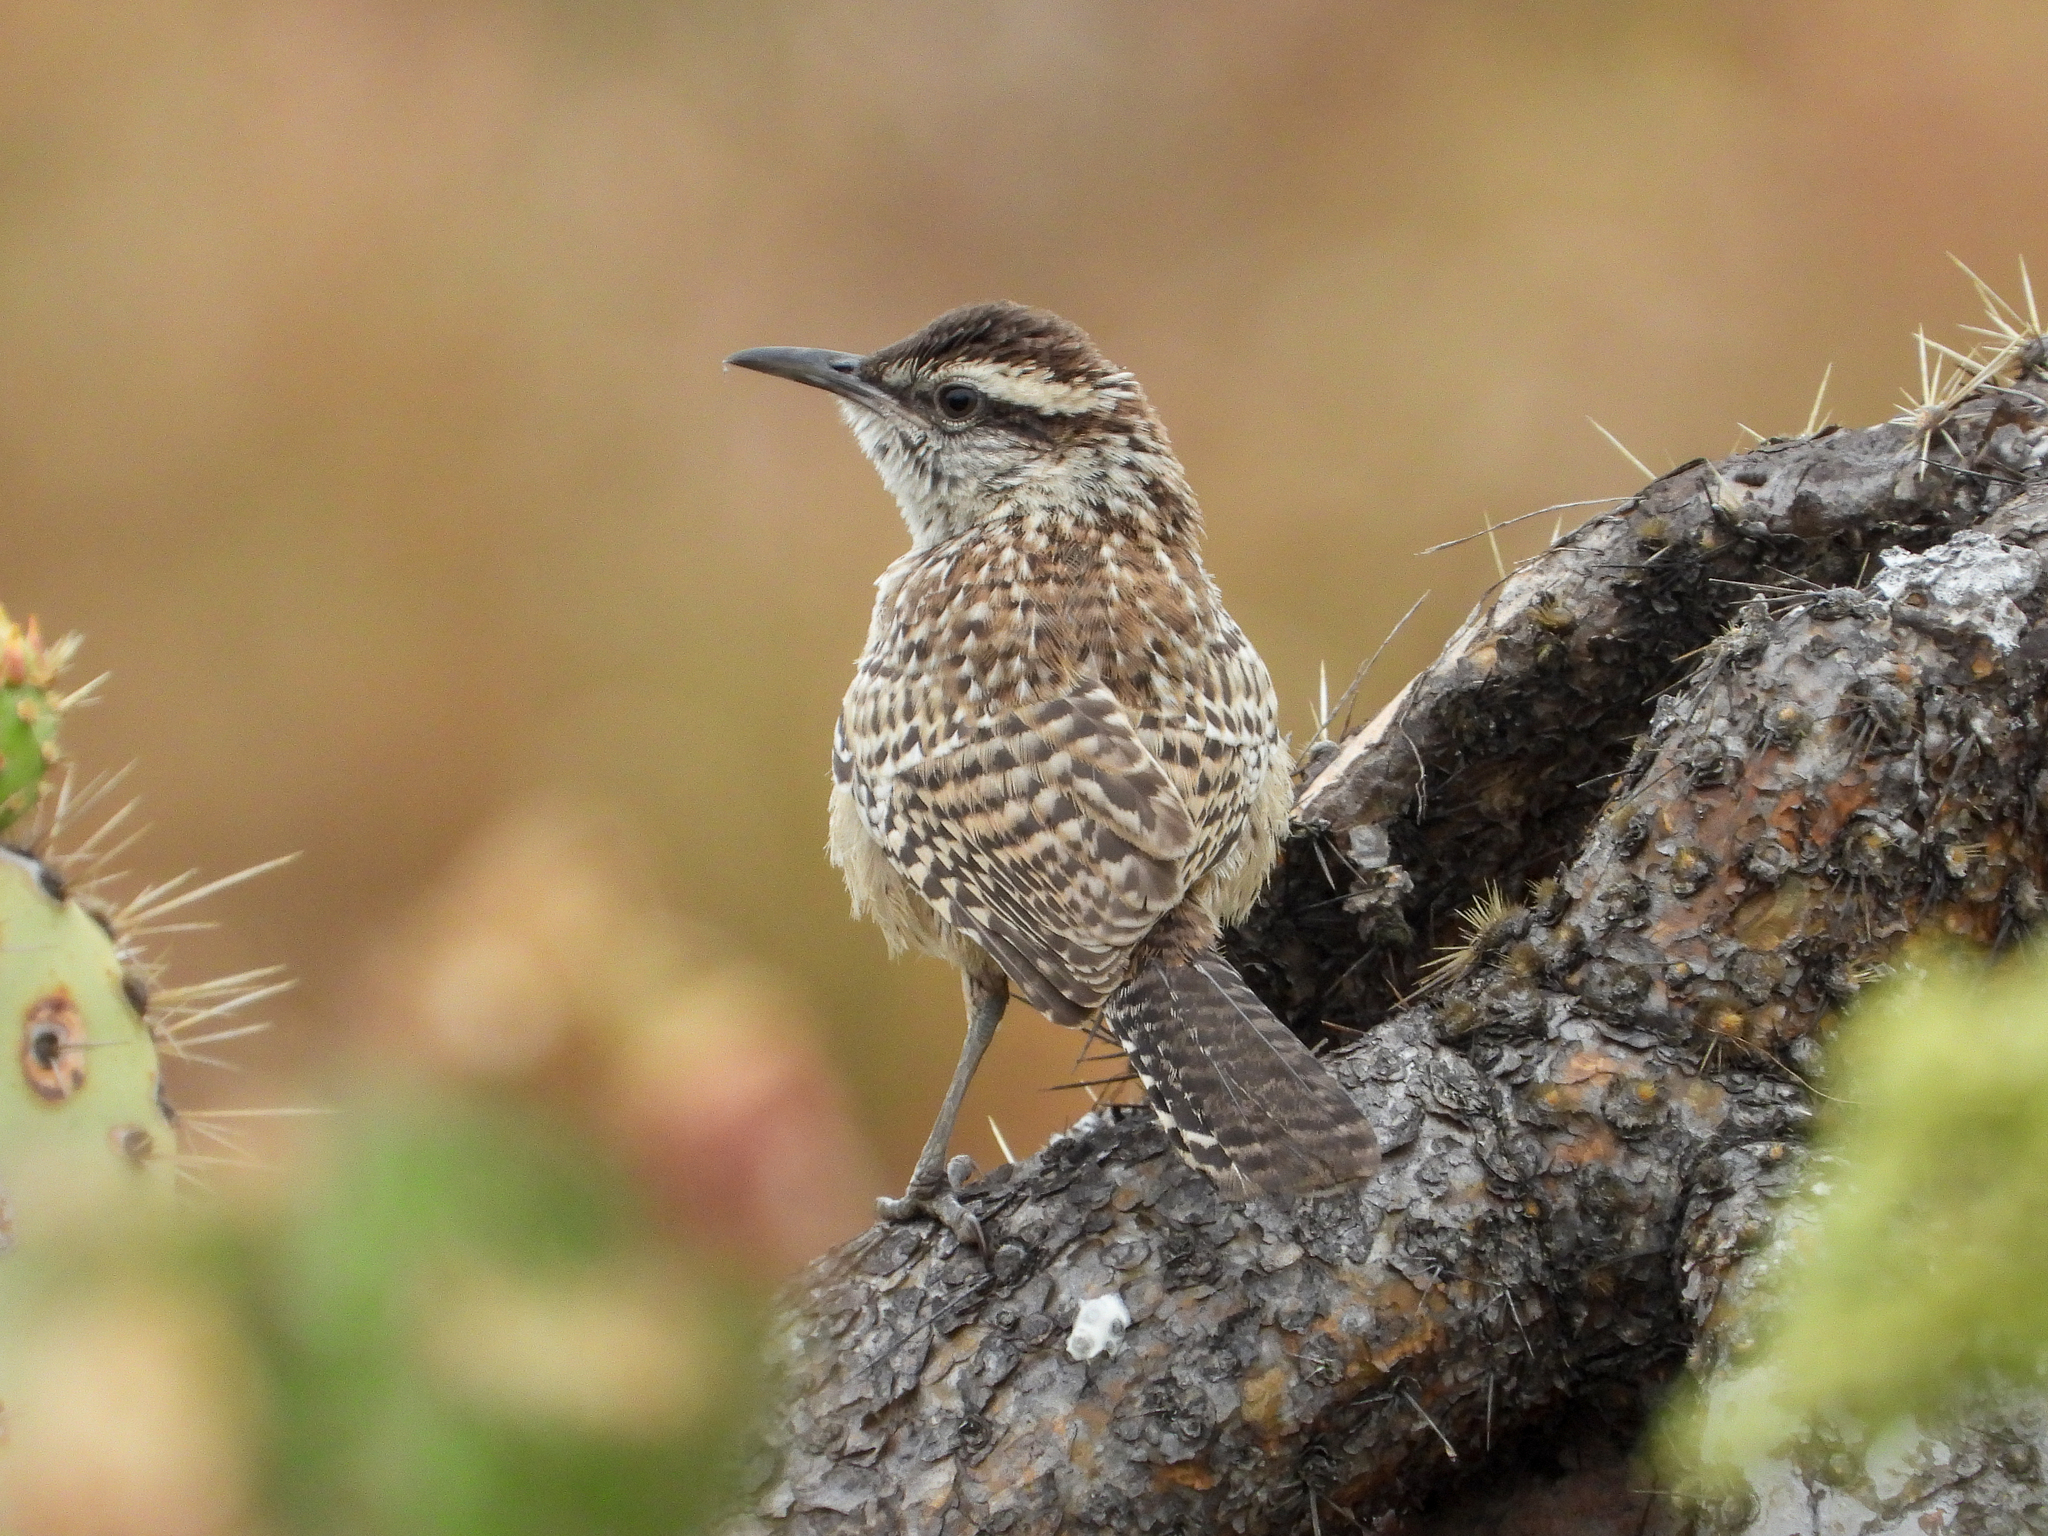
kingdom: Animalia
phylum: Chordata
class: Aves
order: Passeriformes
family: Troglodytidae
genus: Campylorhynchus
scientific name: Campylorhynchus brunneicapillus
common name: Cactus wren
